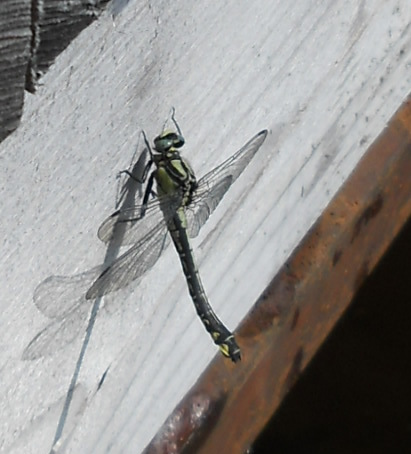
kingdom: Animalia
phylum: Arthropoda
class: Insecta
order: Odonata
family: Gomphidae
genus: Gomphus
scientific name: Gomphus vulgatissimus
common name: Club-tailed dragonfly
